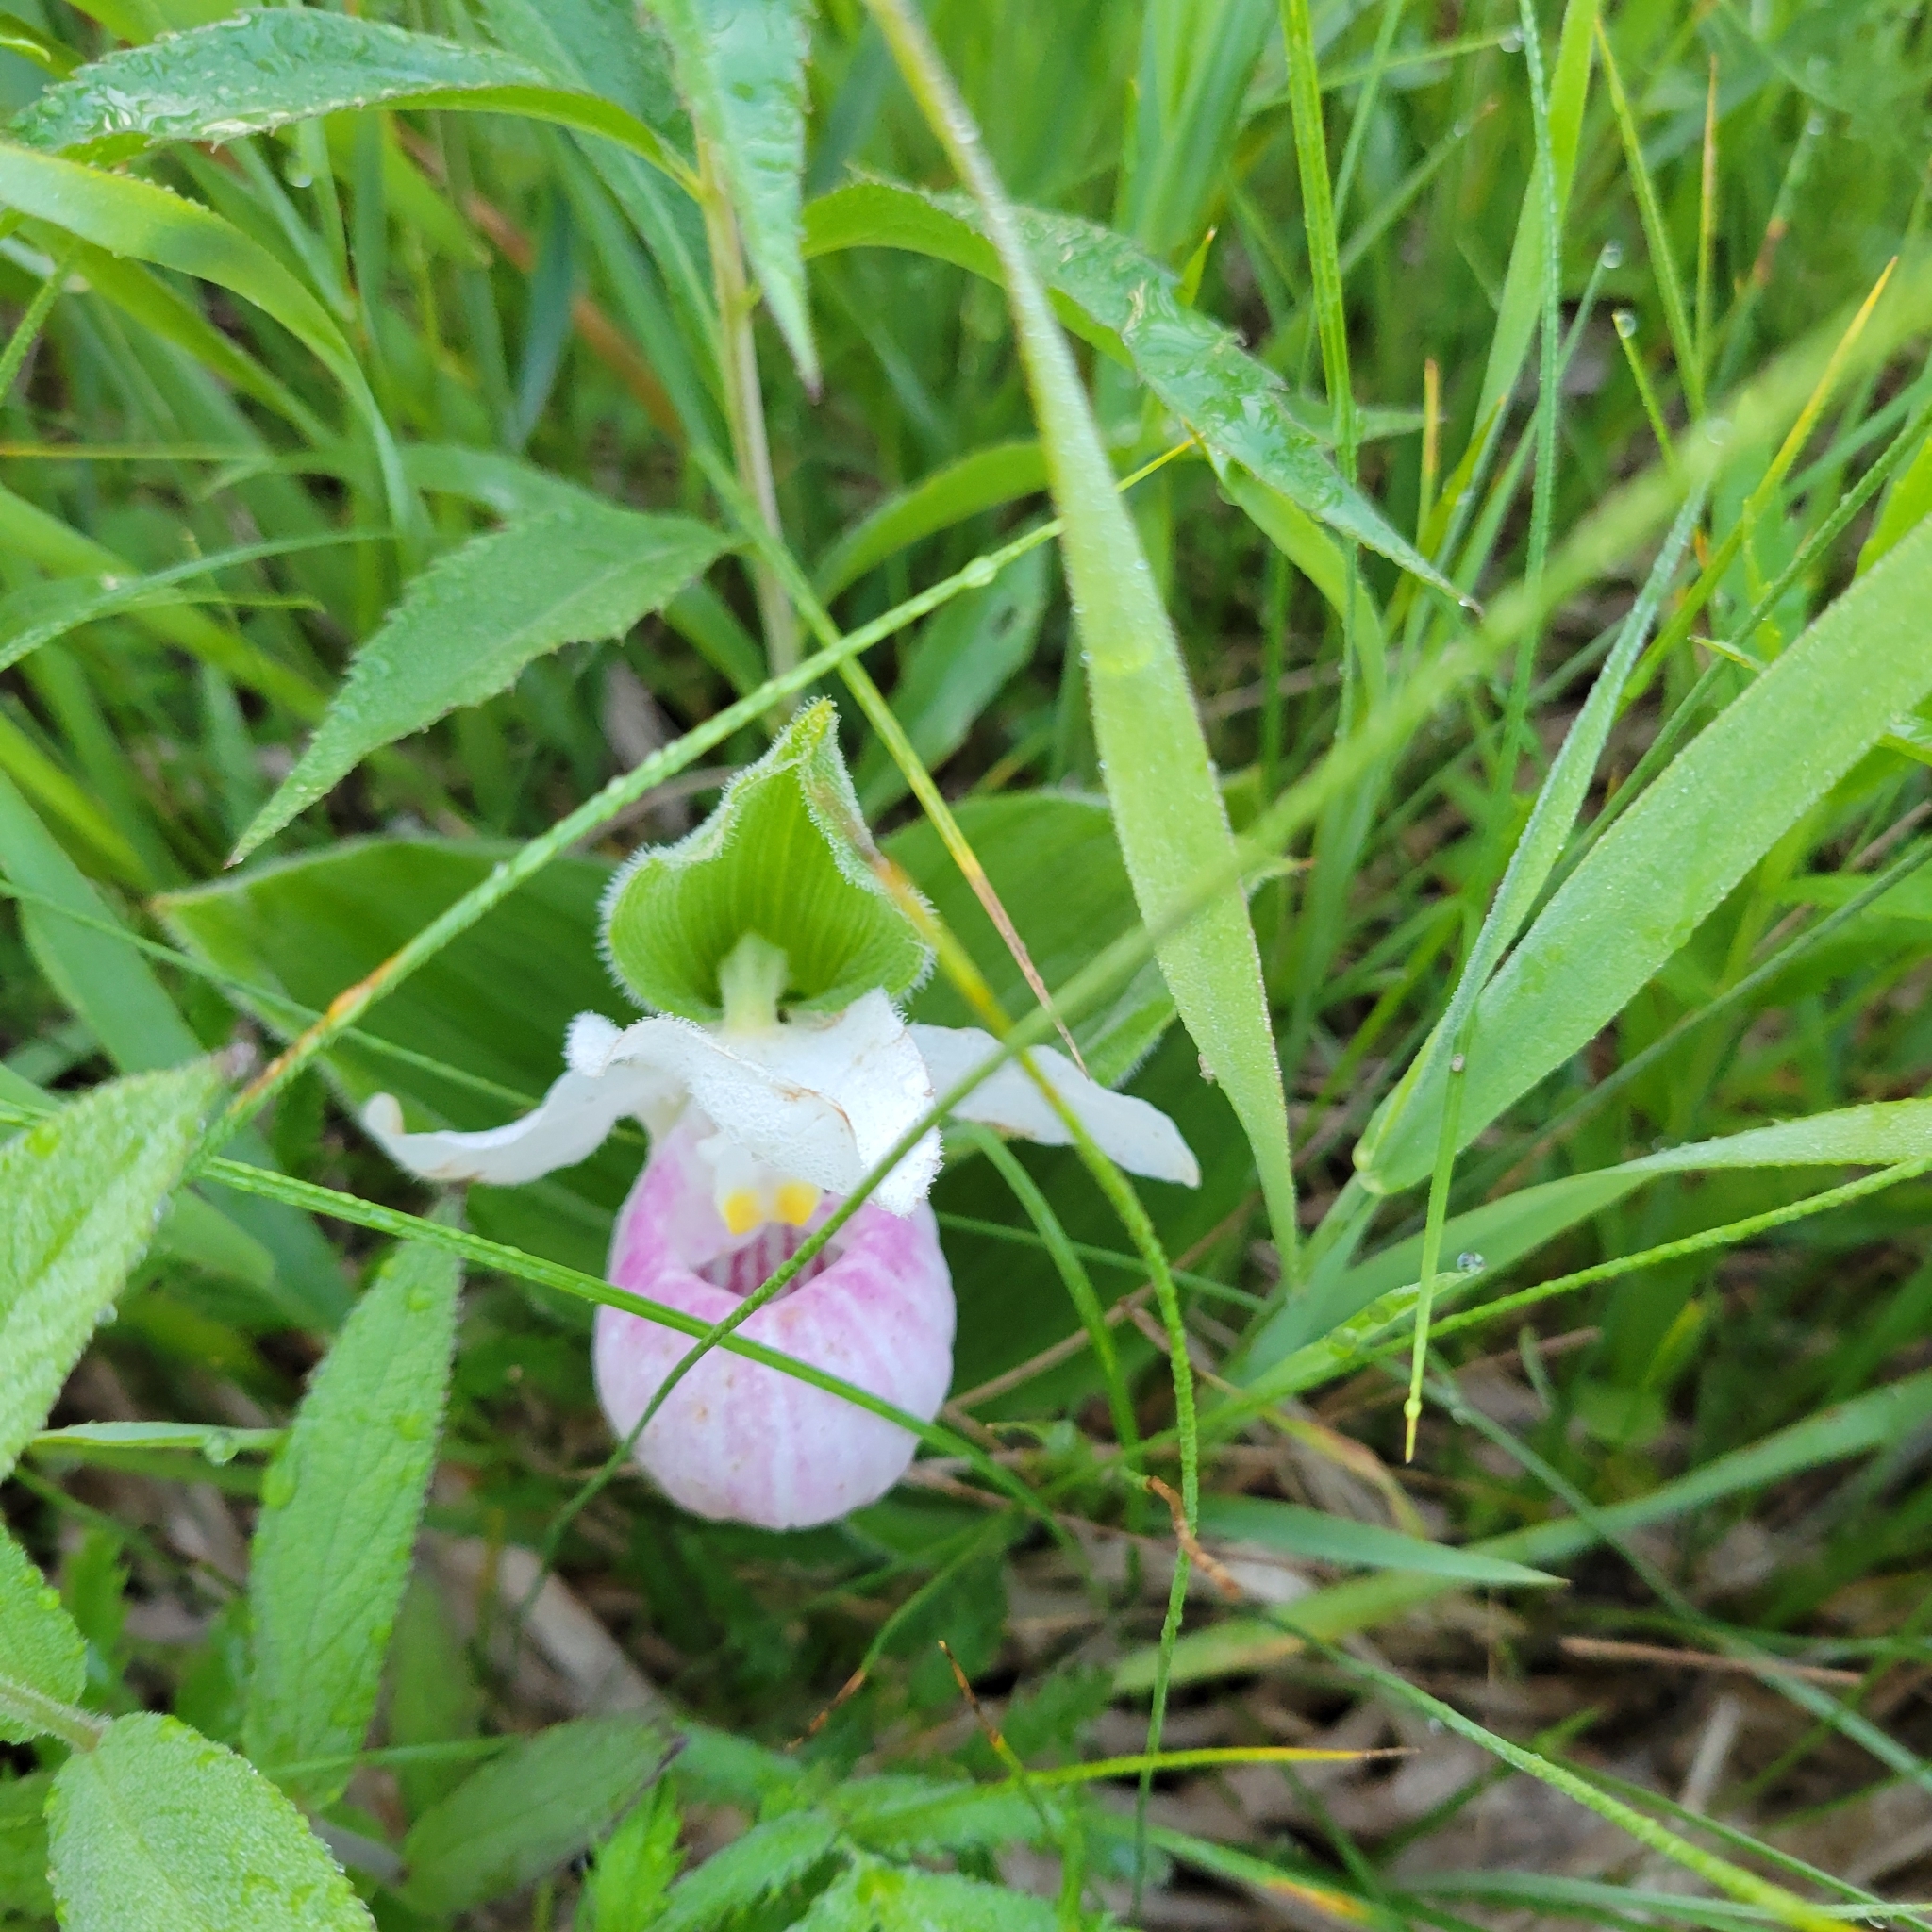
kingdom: Plantae
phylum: Tracheophyta
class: Liliopsida
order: Asparagales
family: Orchidaceae
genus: Cypripedium
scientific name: Cypripedium reginae
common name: Queen lady's-slipper
